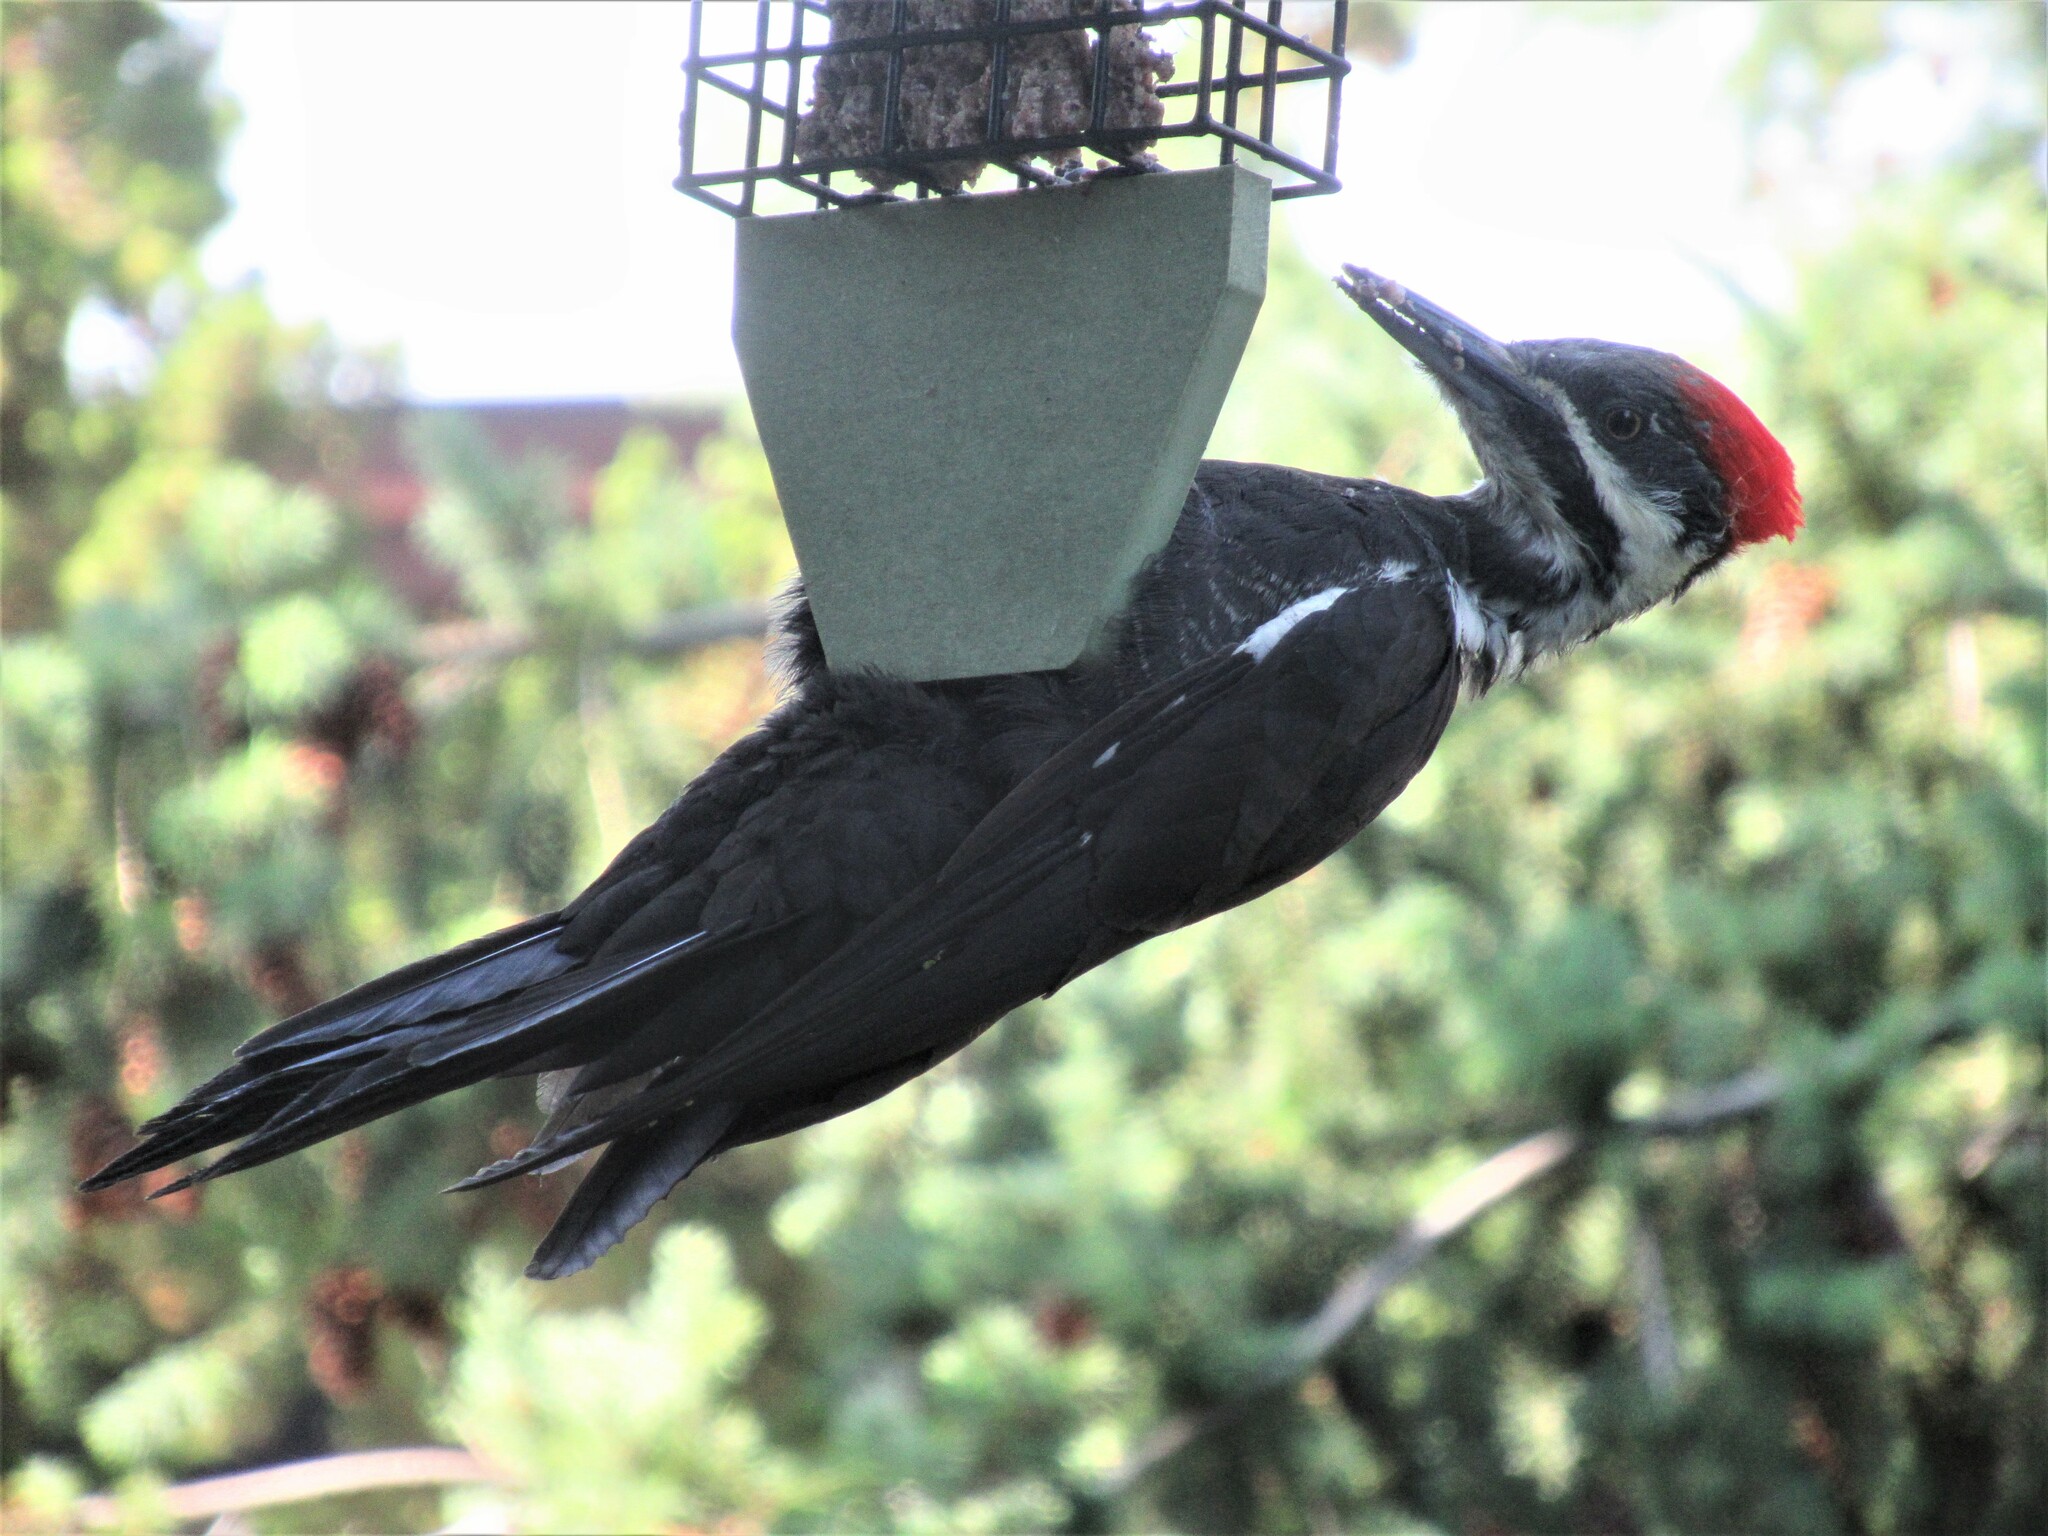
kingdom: Animalia
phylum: Chordata
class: Aves
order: Piciformes
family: Picidae
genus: Dryocopus
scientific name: Dryocopus pileatus
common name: Pileated woodpecker
